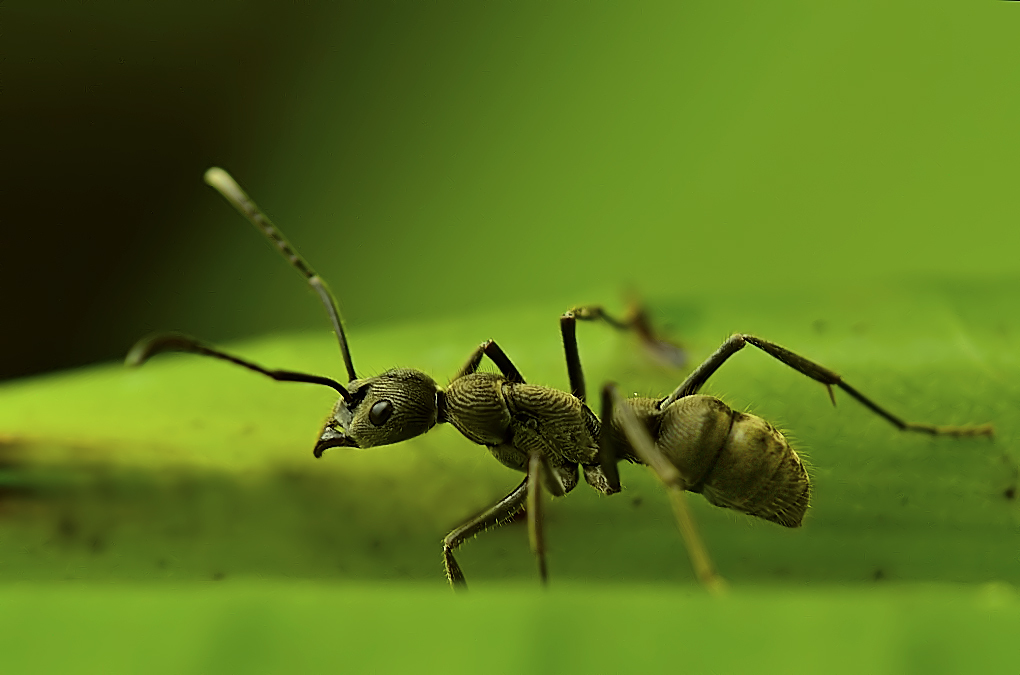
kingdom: Animalia
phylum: Arthropoda
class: Insecta
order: Hymenoptera
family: Formicidae
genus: Diacamma
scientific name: Diacamma rugosum
